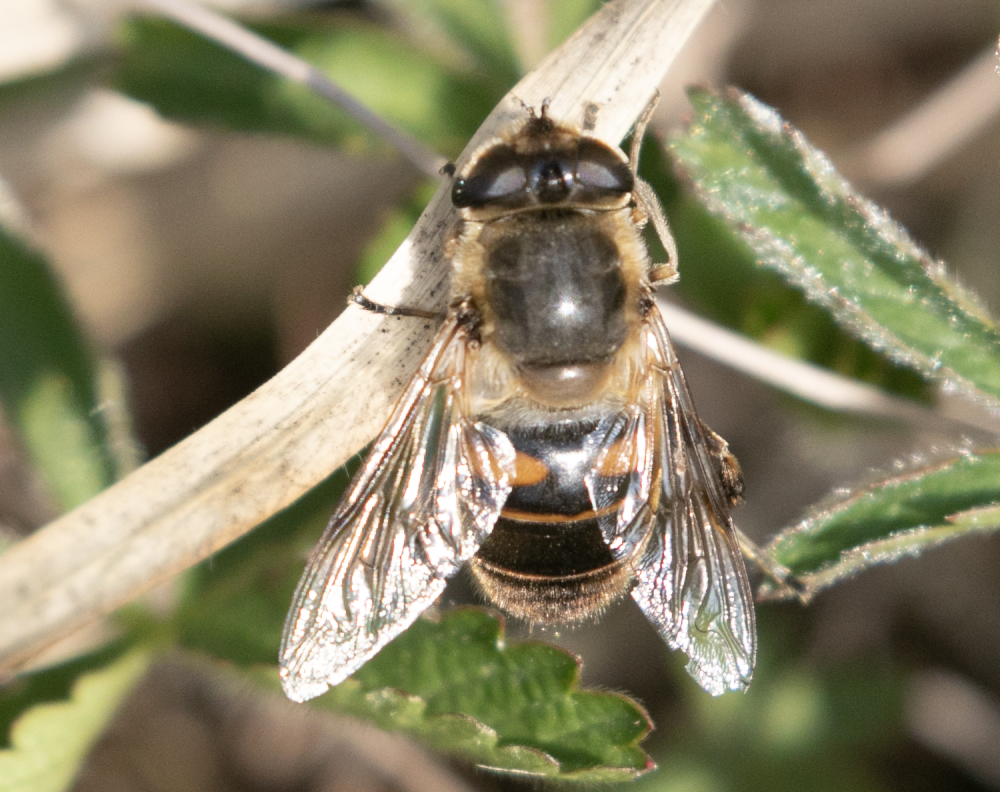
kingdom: Animalia
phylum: Arthropoda
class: Insecta
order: Diptera
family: Syrphidae
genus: Eristalis
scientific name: Eristalis tenax
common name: Drone fly
